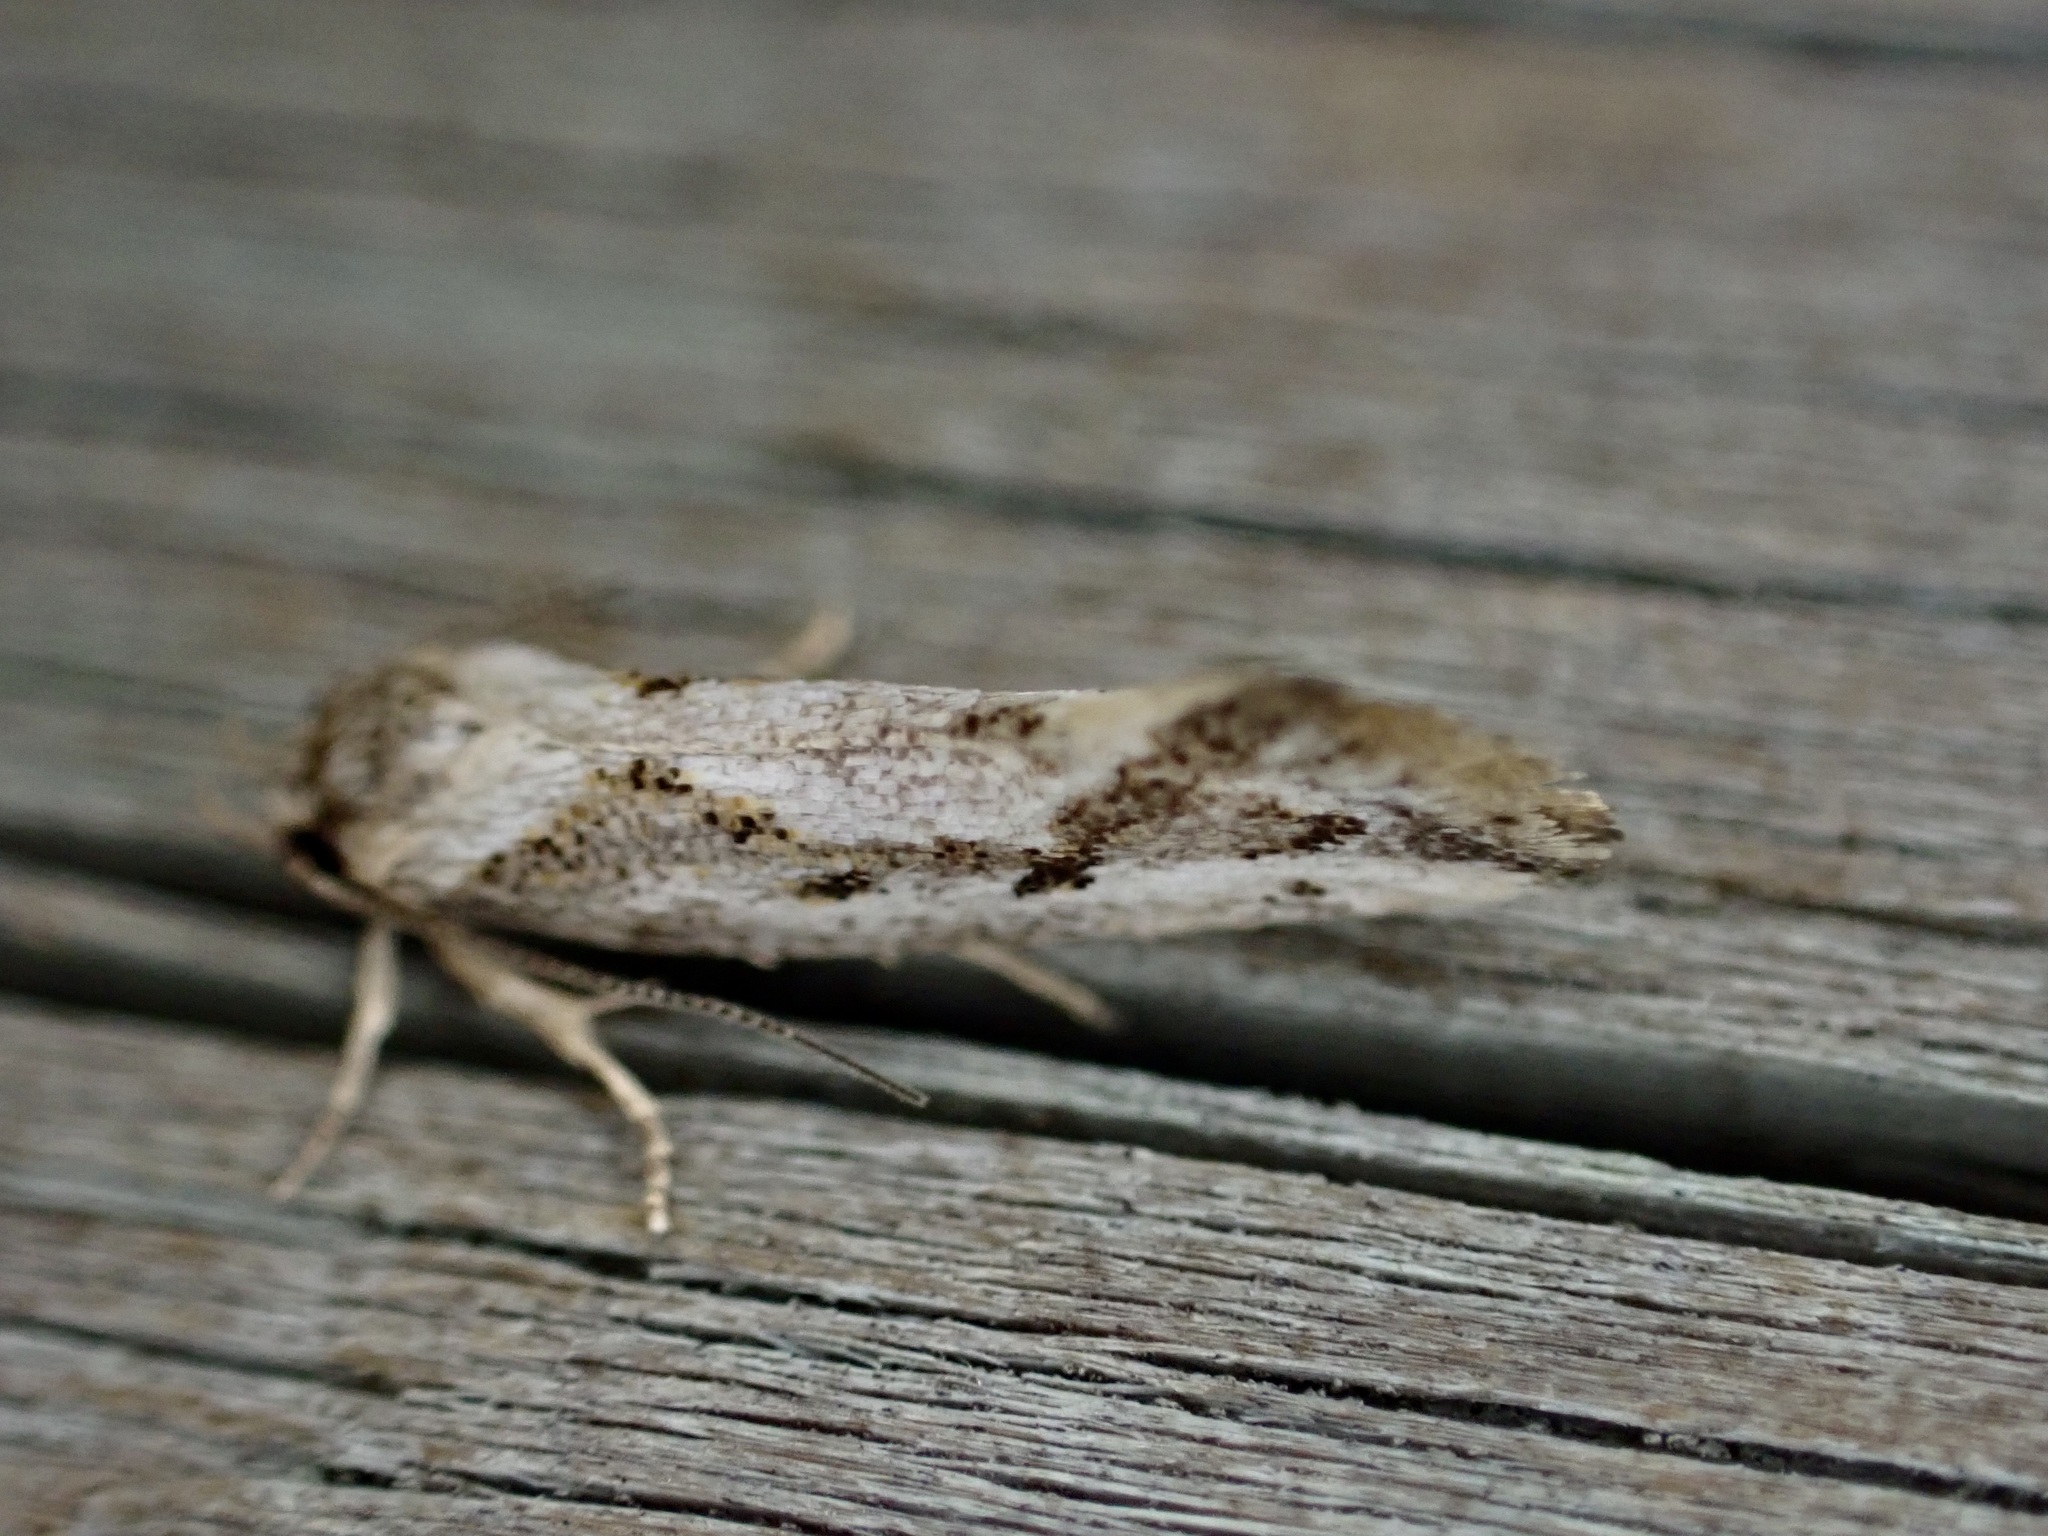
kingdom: Animalia
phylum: Arthropoda
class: Insecta
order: Lepidoptera
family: Oecophoridae
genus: Tingena
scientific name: Tingena hemimochla
